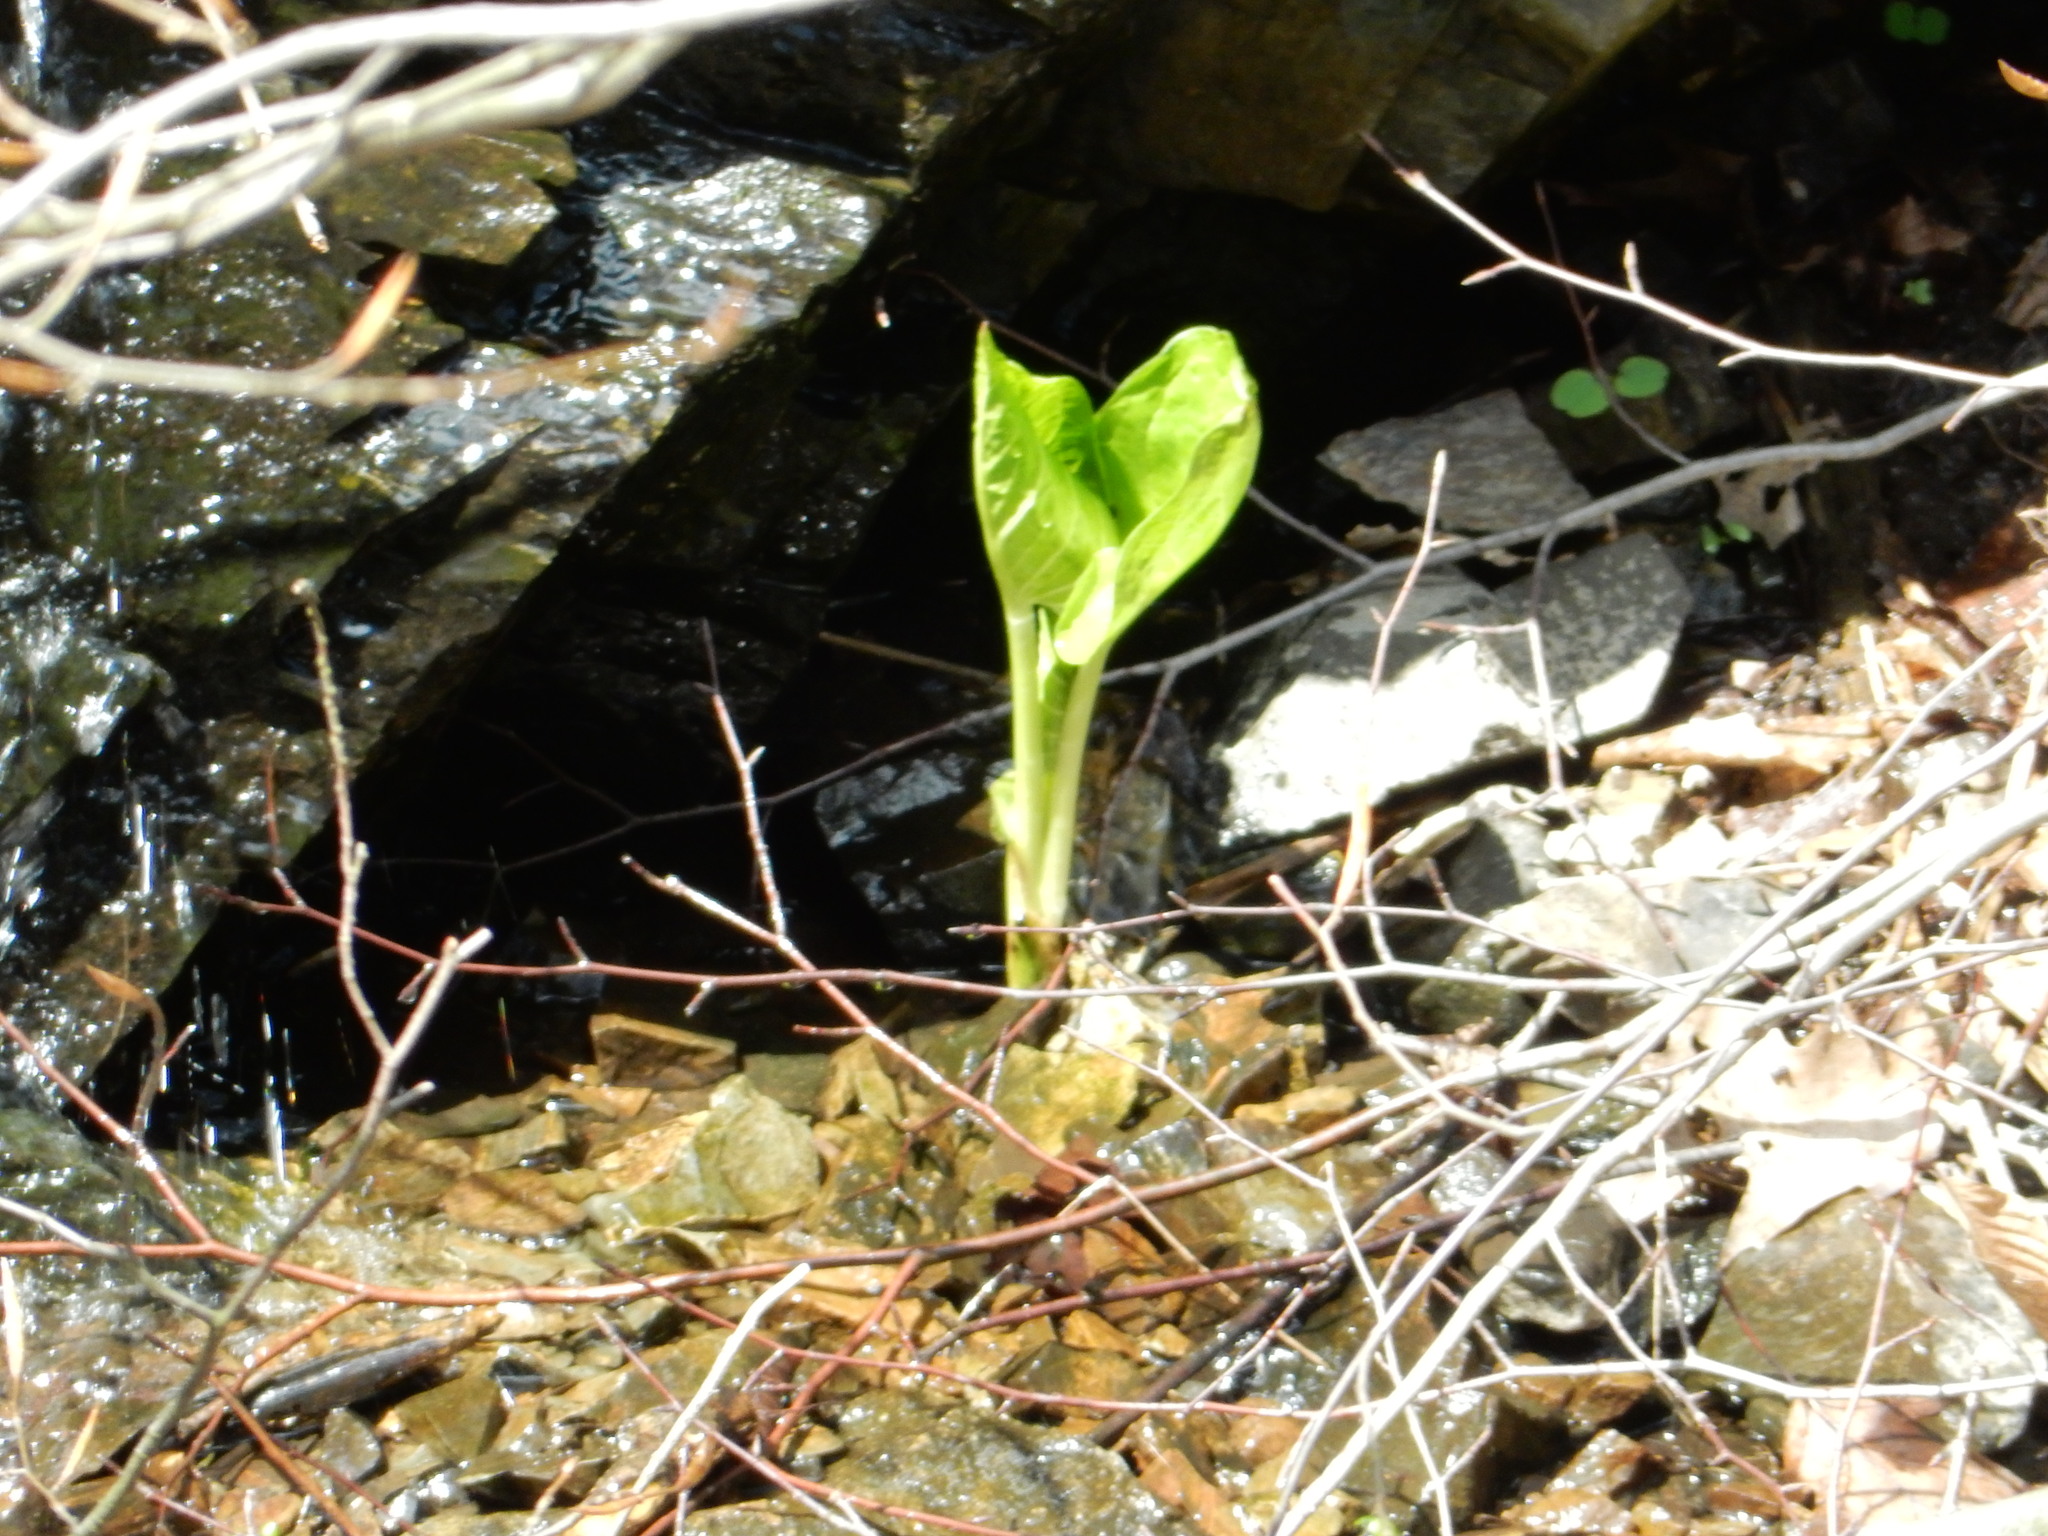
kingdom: Plantae
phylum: Tracheophyta
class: Liliopsida
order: Alismatales
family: Araceae
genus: Symplocarpus
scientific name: Symplocarpus foetidus
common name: Eastern skunk cabbage
